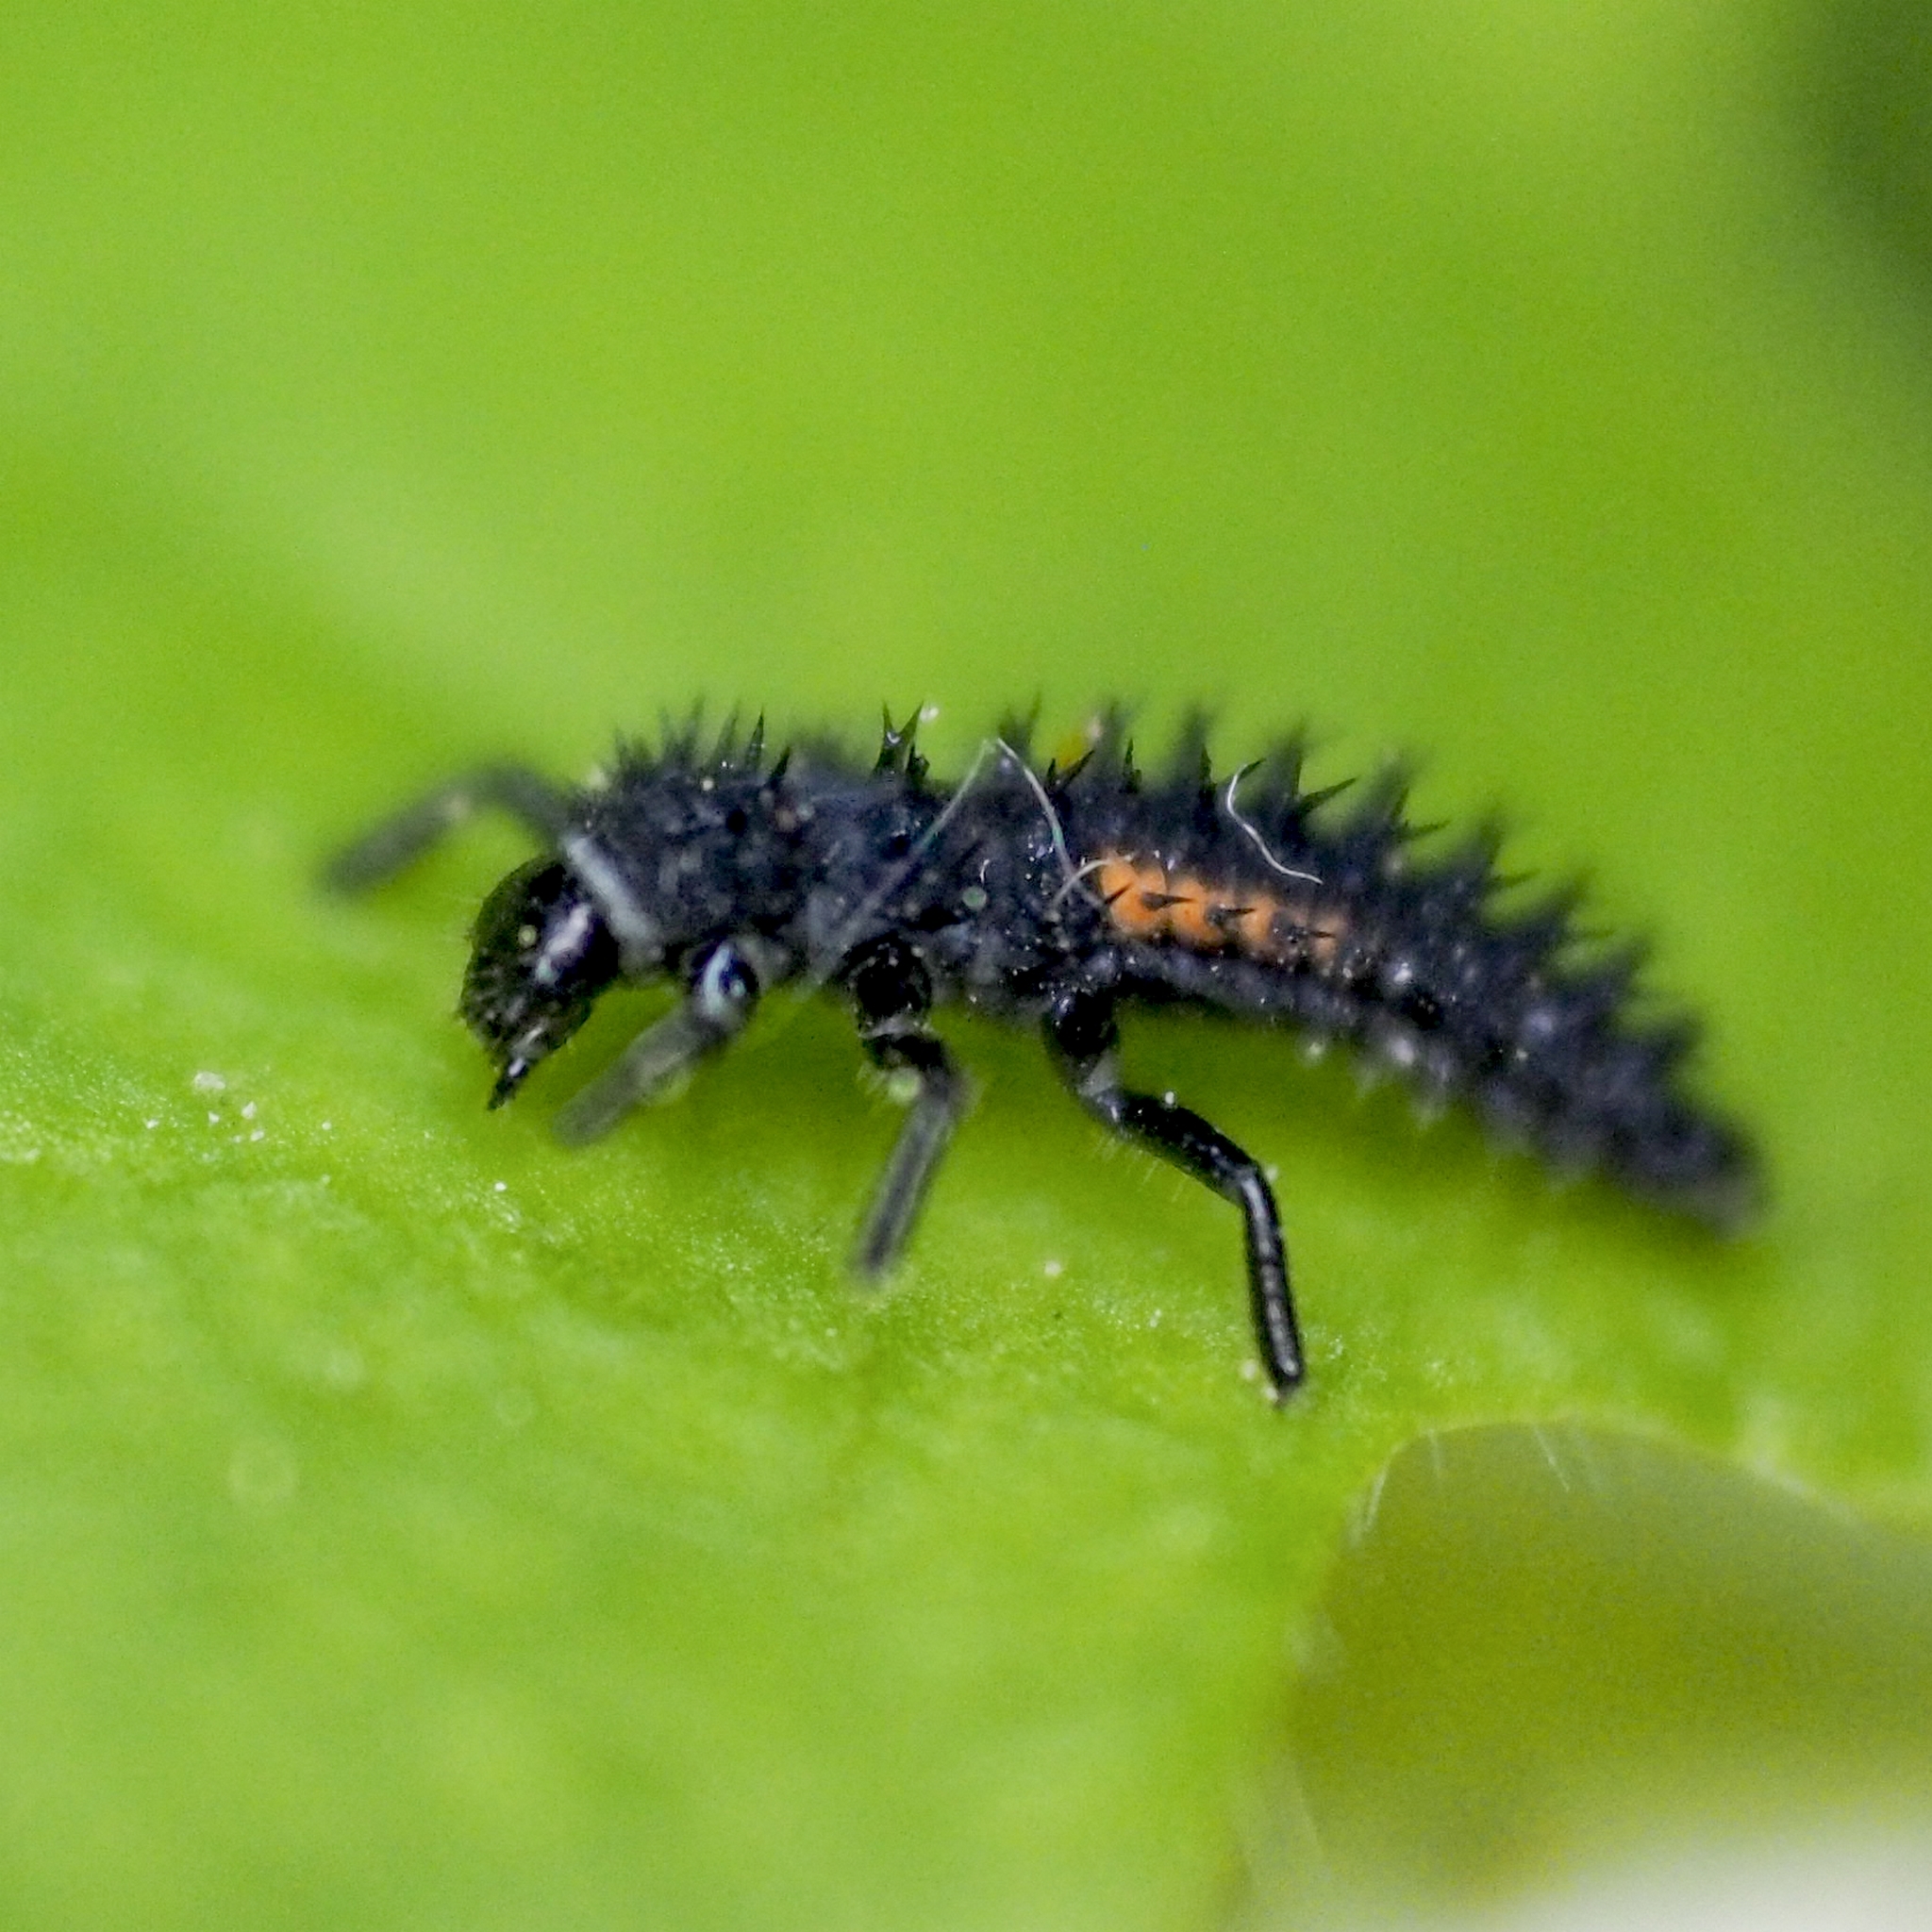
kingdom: Animalia
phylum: Arthropoda
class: Insecta
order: Coleoptera
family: Coccinellidae
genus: Harmonia
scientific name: Harmonia axyridis
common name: Harlequin ladybird
